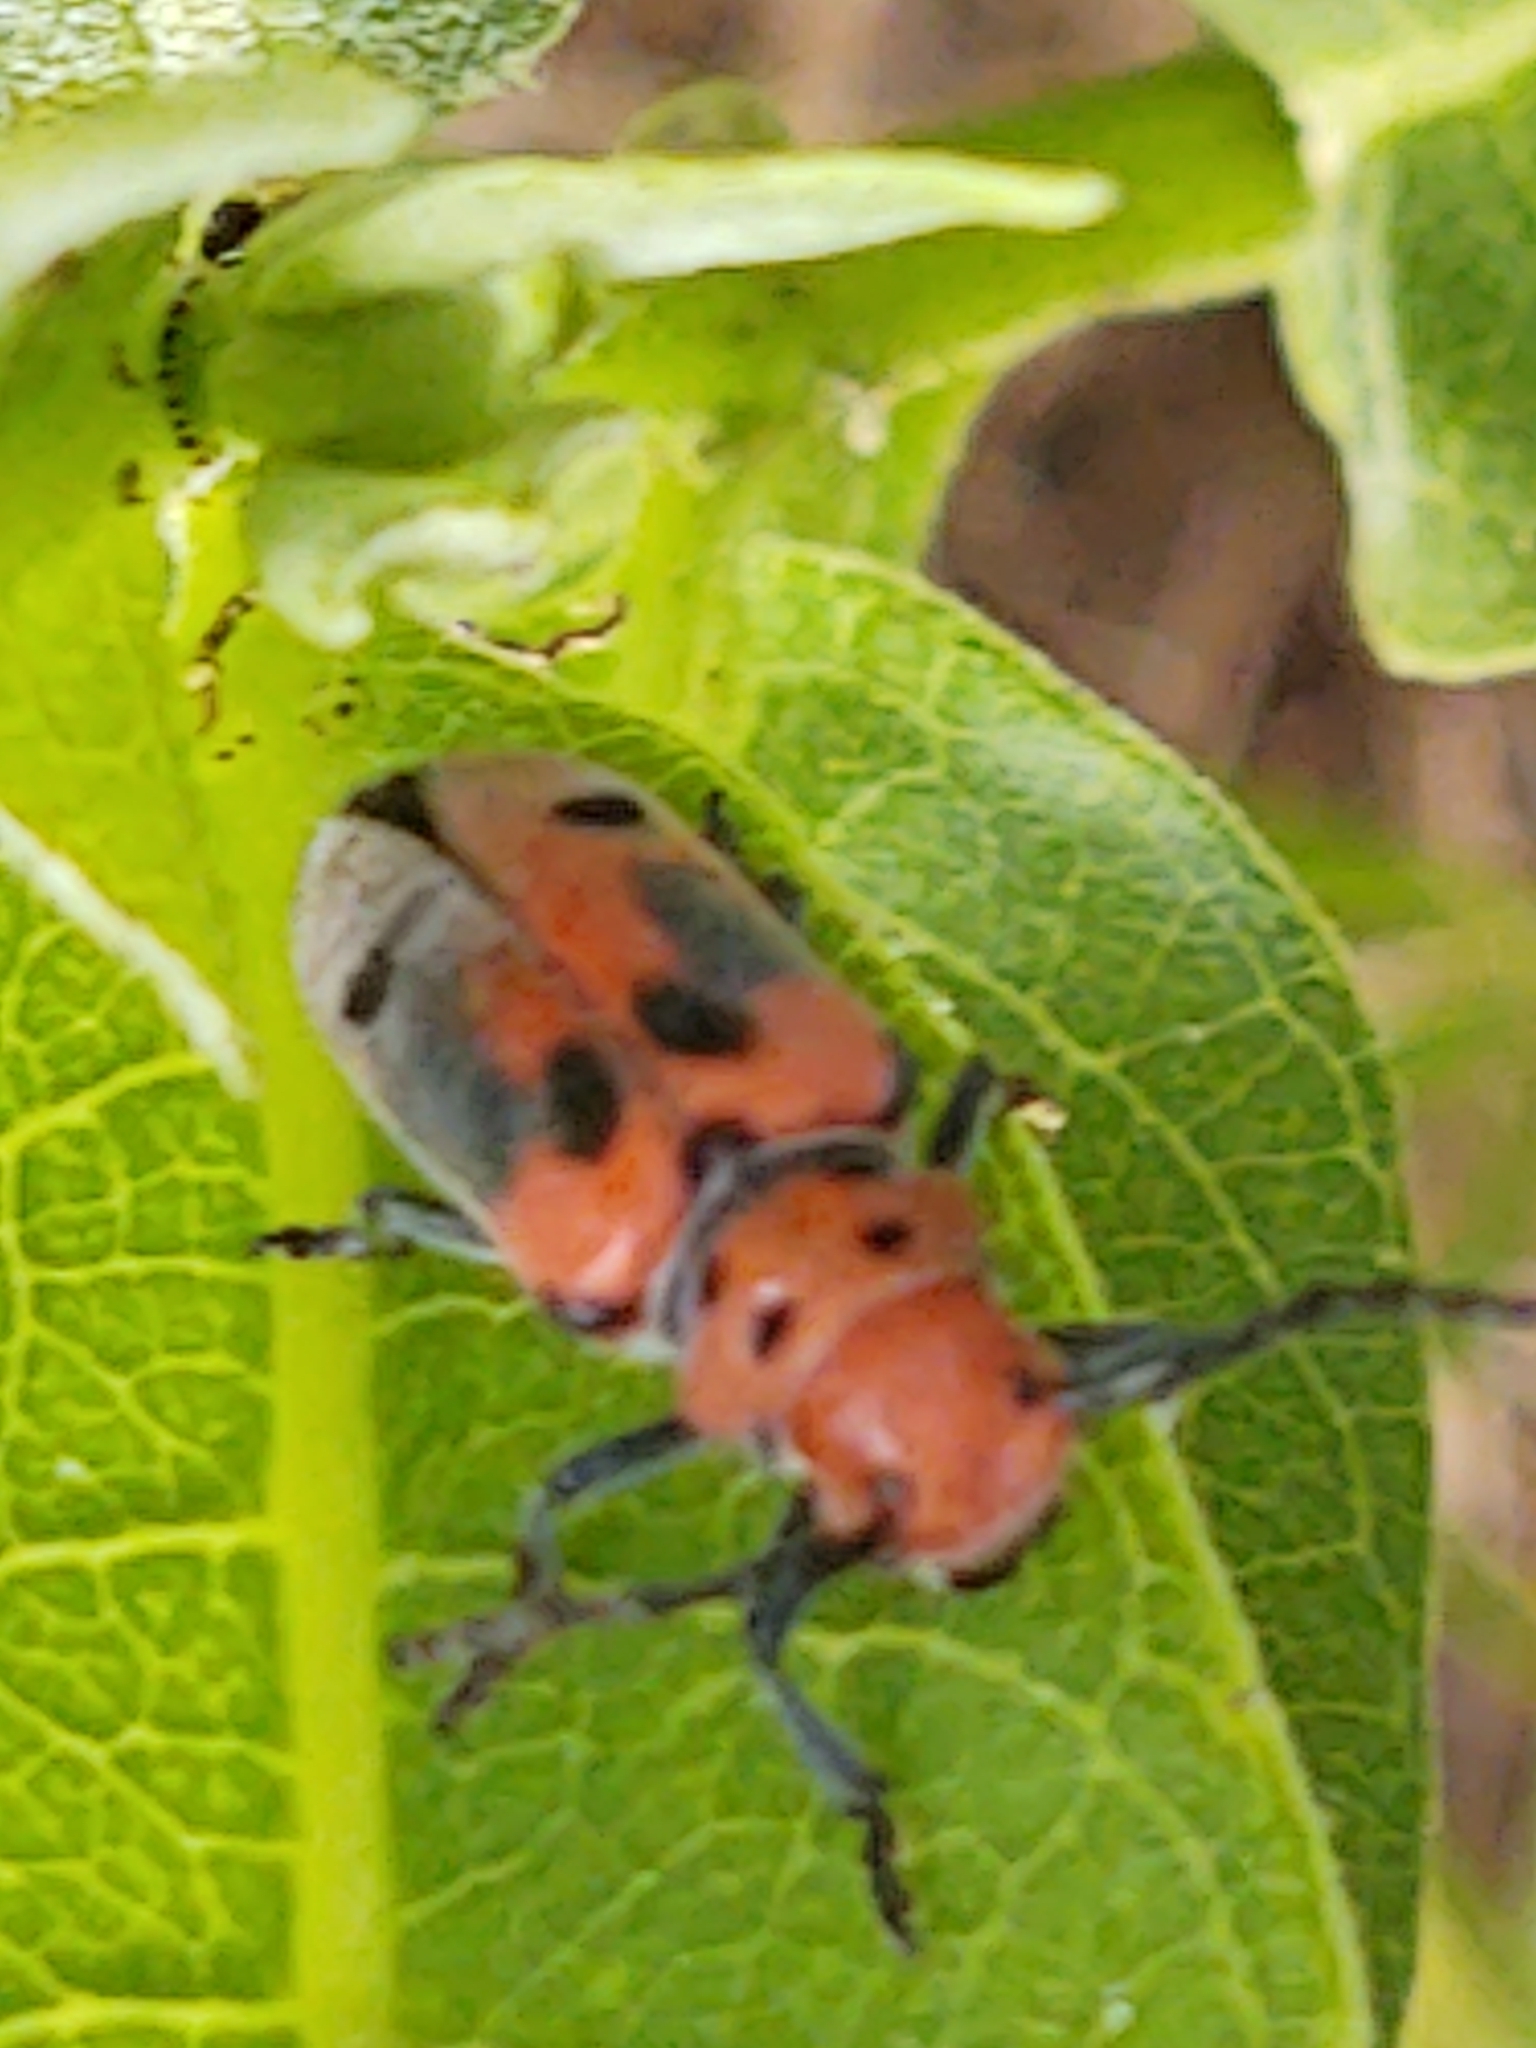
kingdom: Animalia
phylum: Arthropoda
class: Insecta
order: Coleoptera
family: Cerambycidae
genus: Tetraopes
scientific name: Tetraopes tetrophthalmus
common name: Red milkweed beetle
